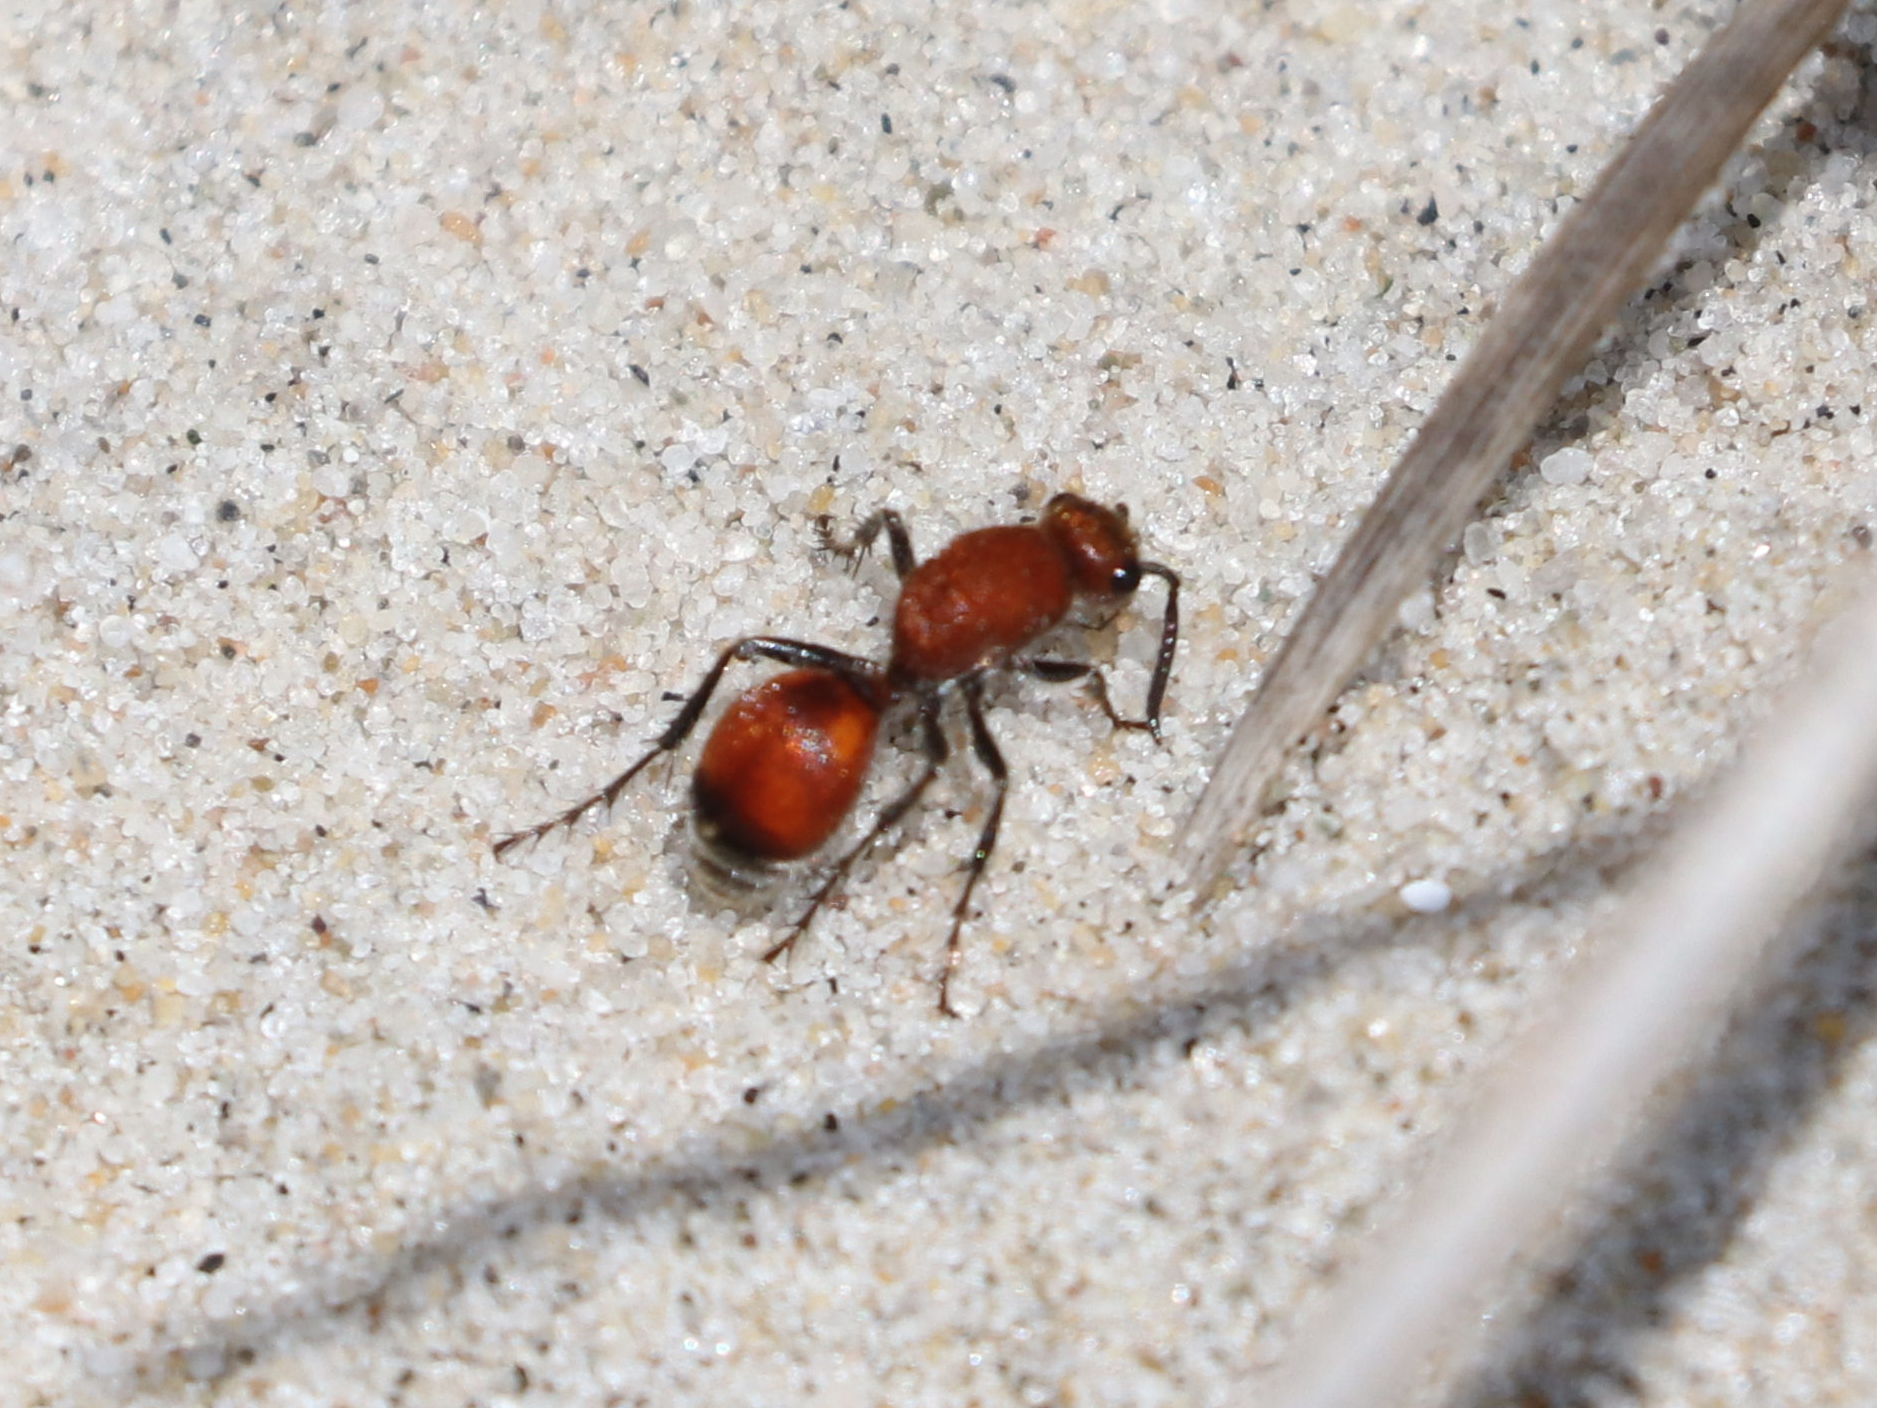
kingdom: Animalia
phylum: Arthropoda
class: Insecta
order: Hymenoptera
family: Mutillidae
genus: Dasymutilla
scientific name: Dasymutilla
